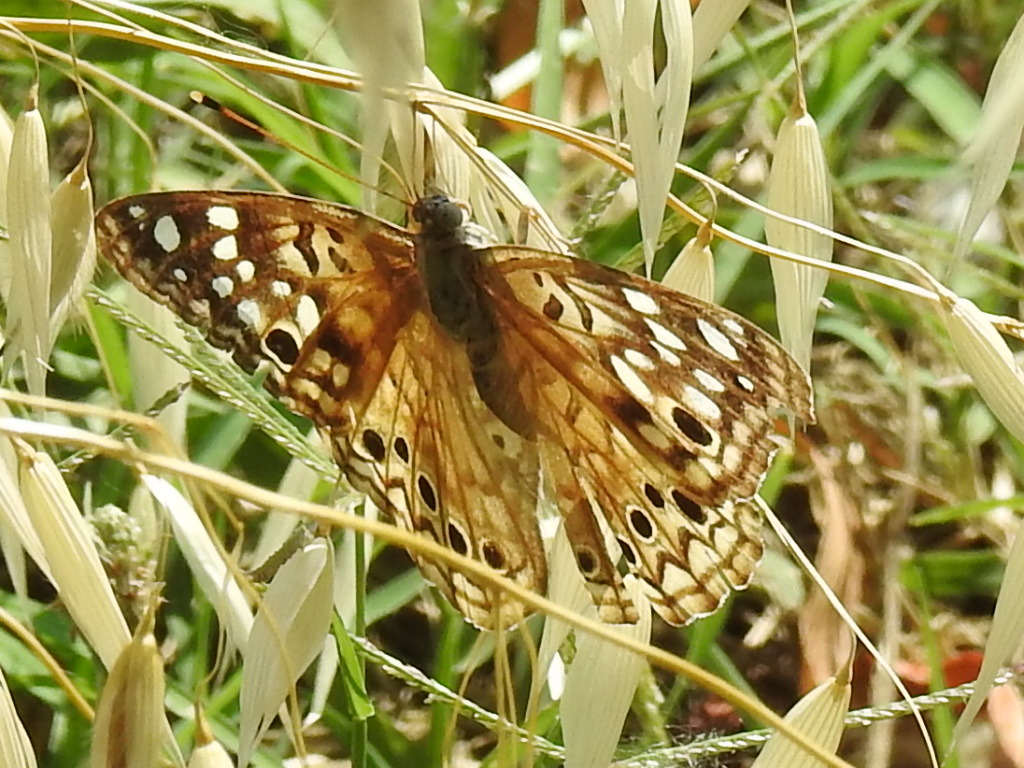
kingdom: Animalia
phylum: Arthropoda
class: Insecta
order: Lepidoptera
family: Nymphalidae
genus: Asterocampa
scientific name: Asterocampa celtis
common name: Hackberry emperor
